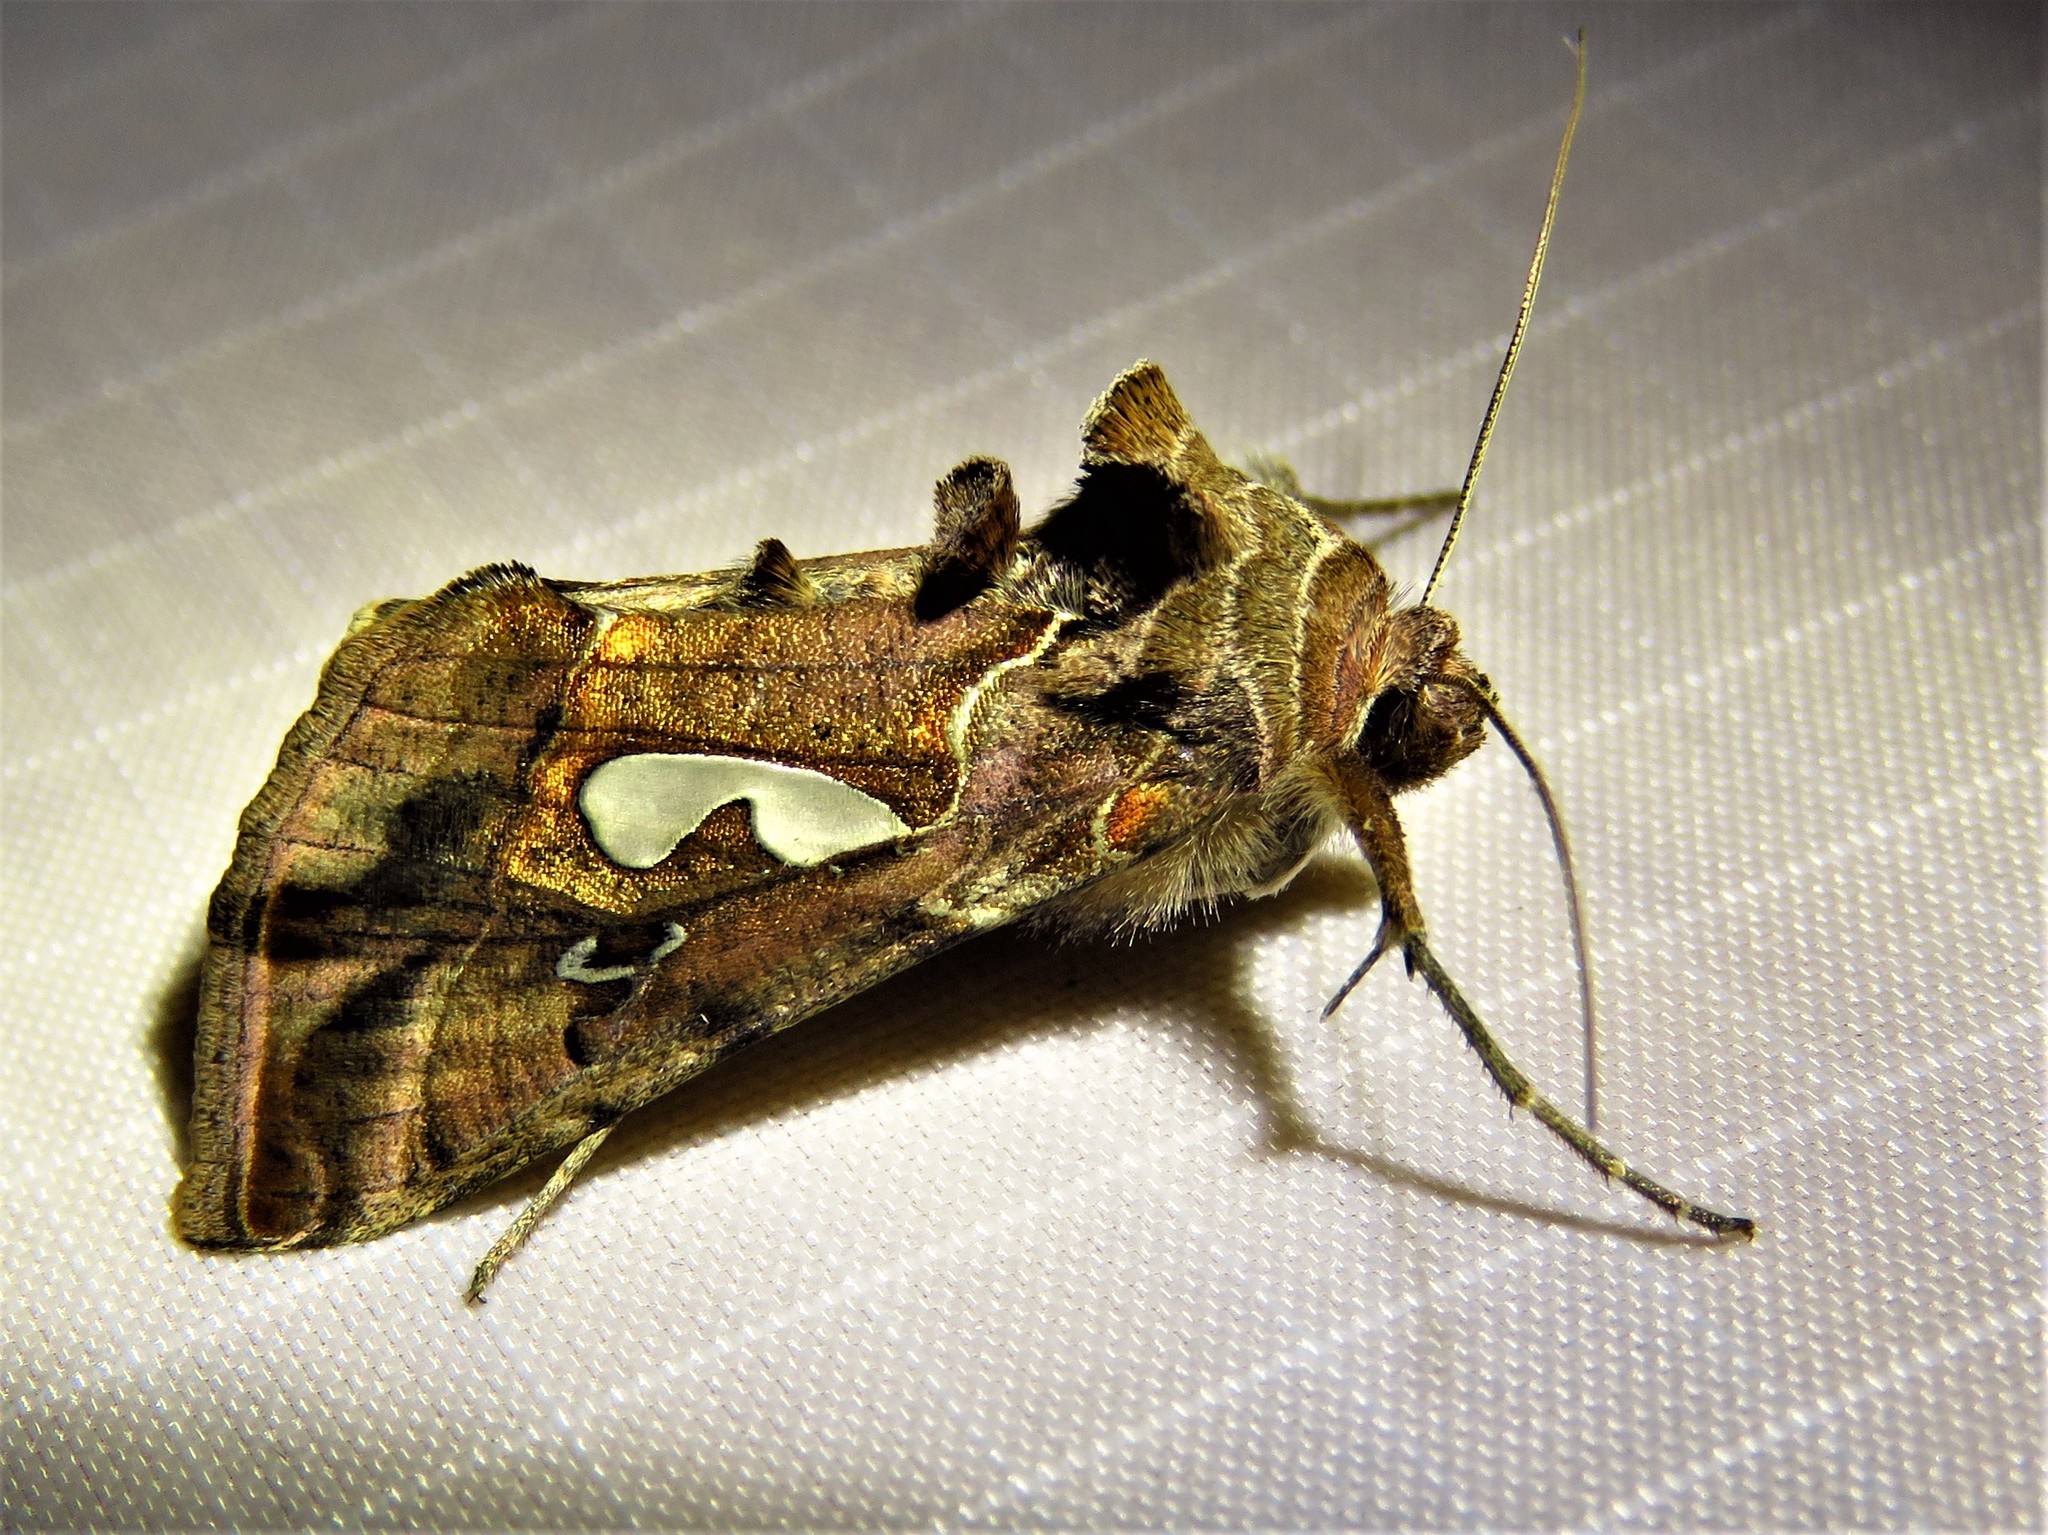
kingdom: Animalia
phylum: Arthropoda
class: Insecta
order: Lepidoptera
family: Noctuidae
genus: Megalographa
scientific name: Megalographa biloba
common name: Cutworm
